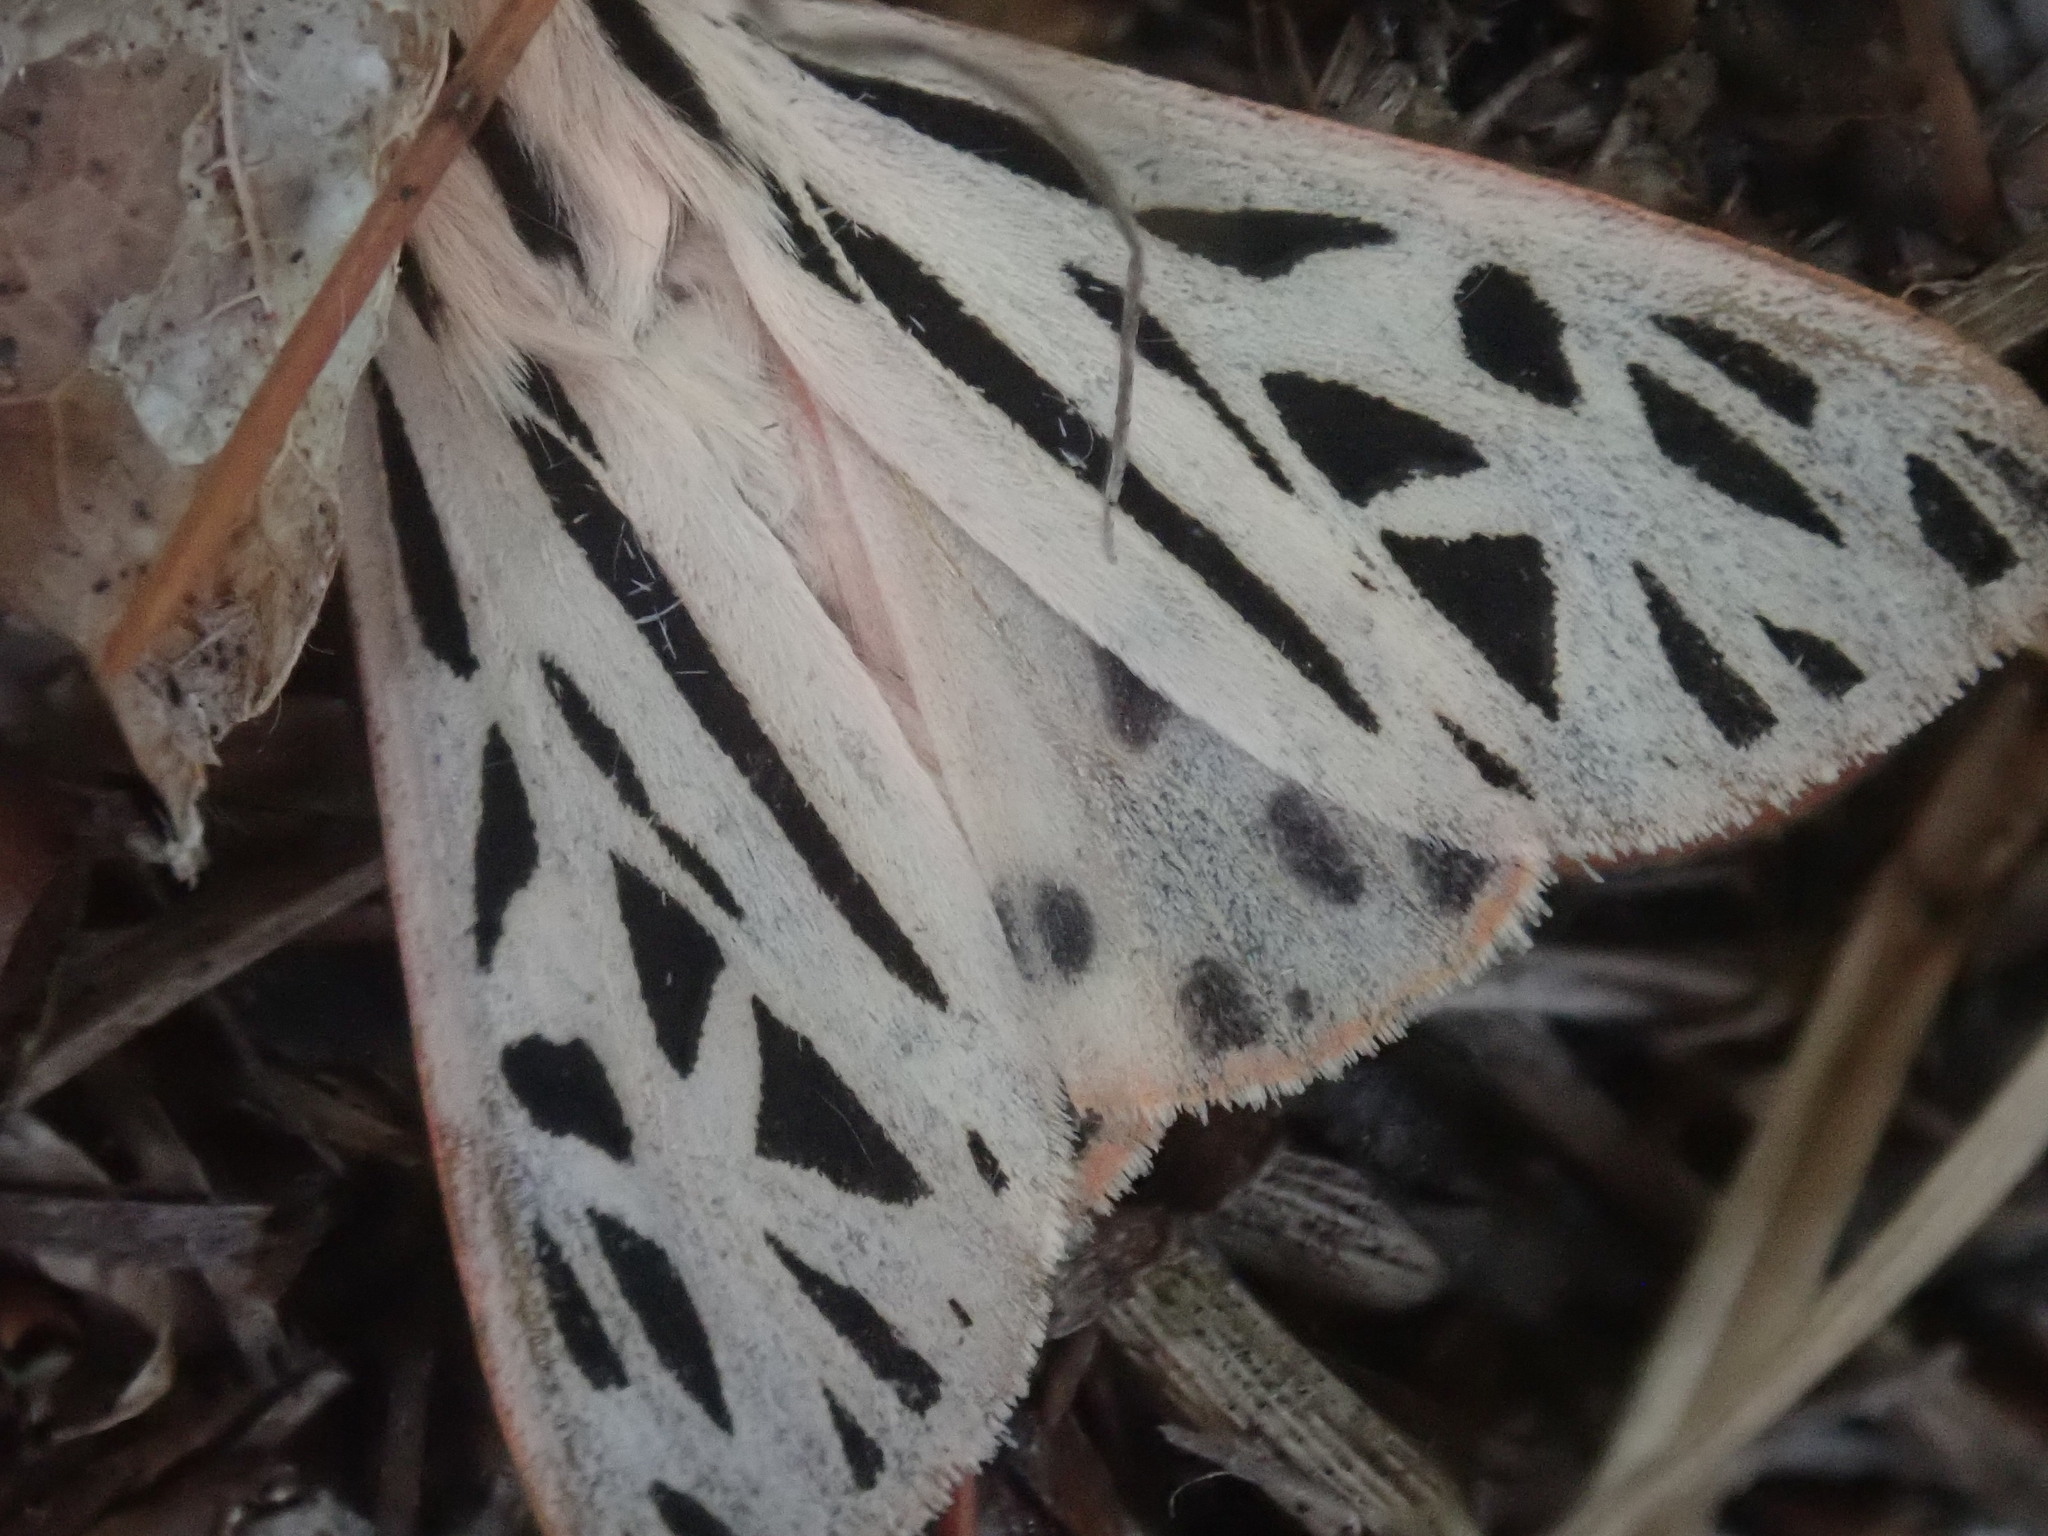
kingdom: Animalia
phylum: Arthropoda
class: Insecta
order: Lepidoptera
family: Erebidae
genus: Apantesis
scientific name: Apantesis arge
